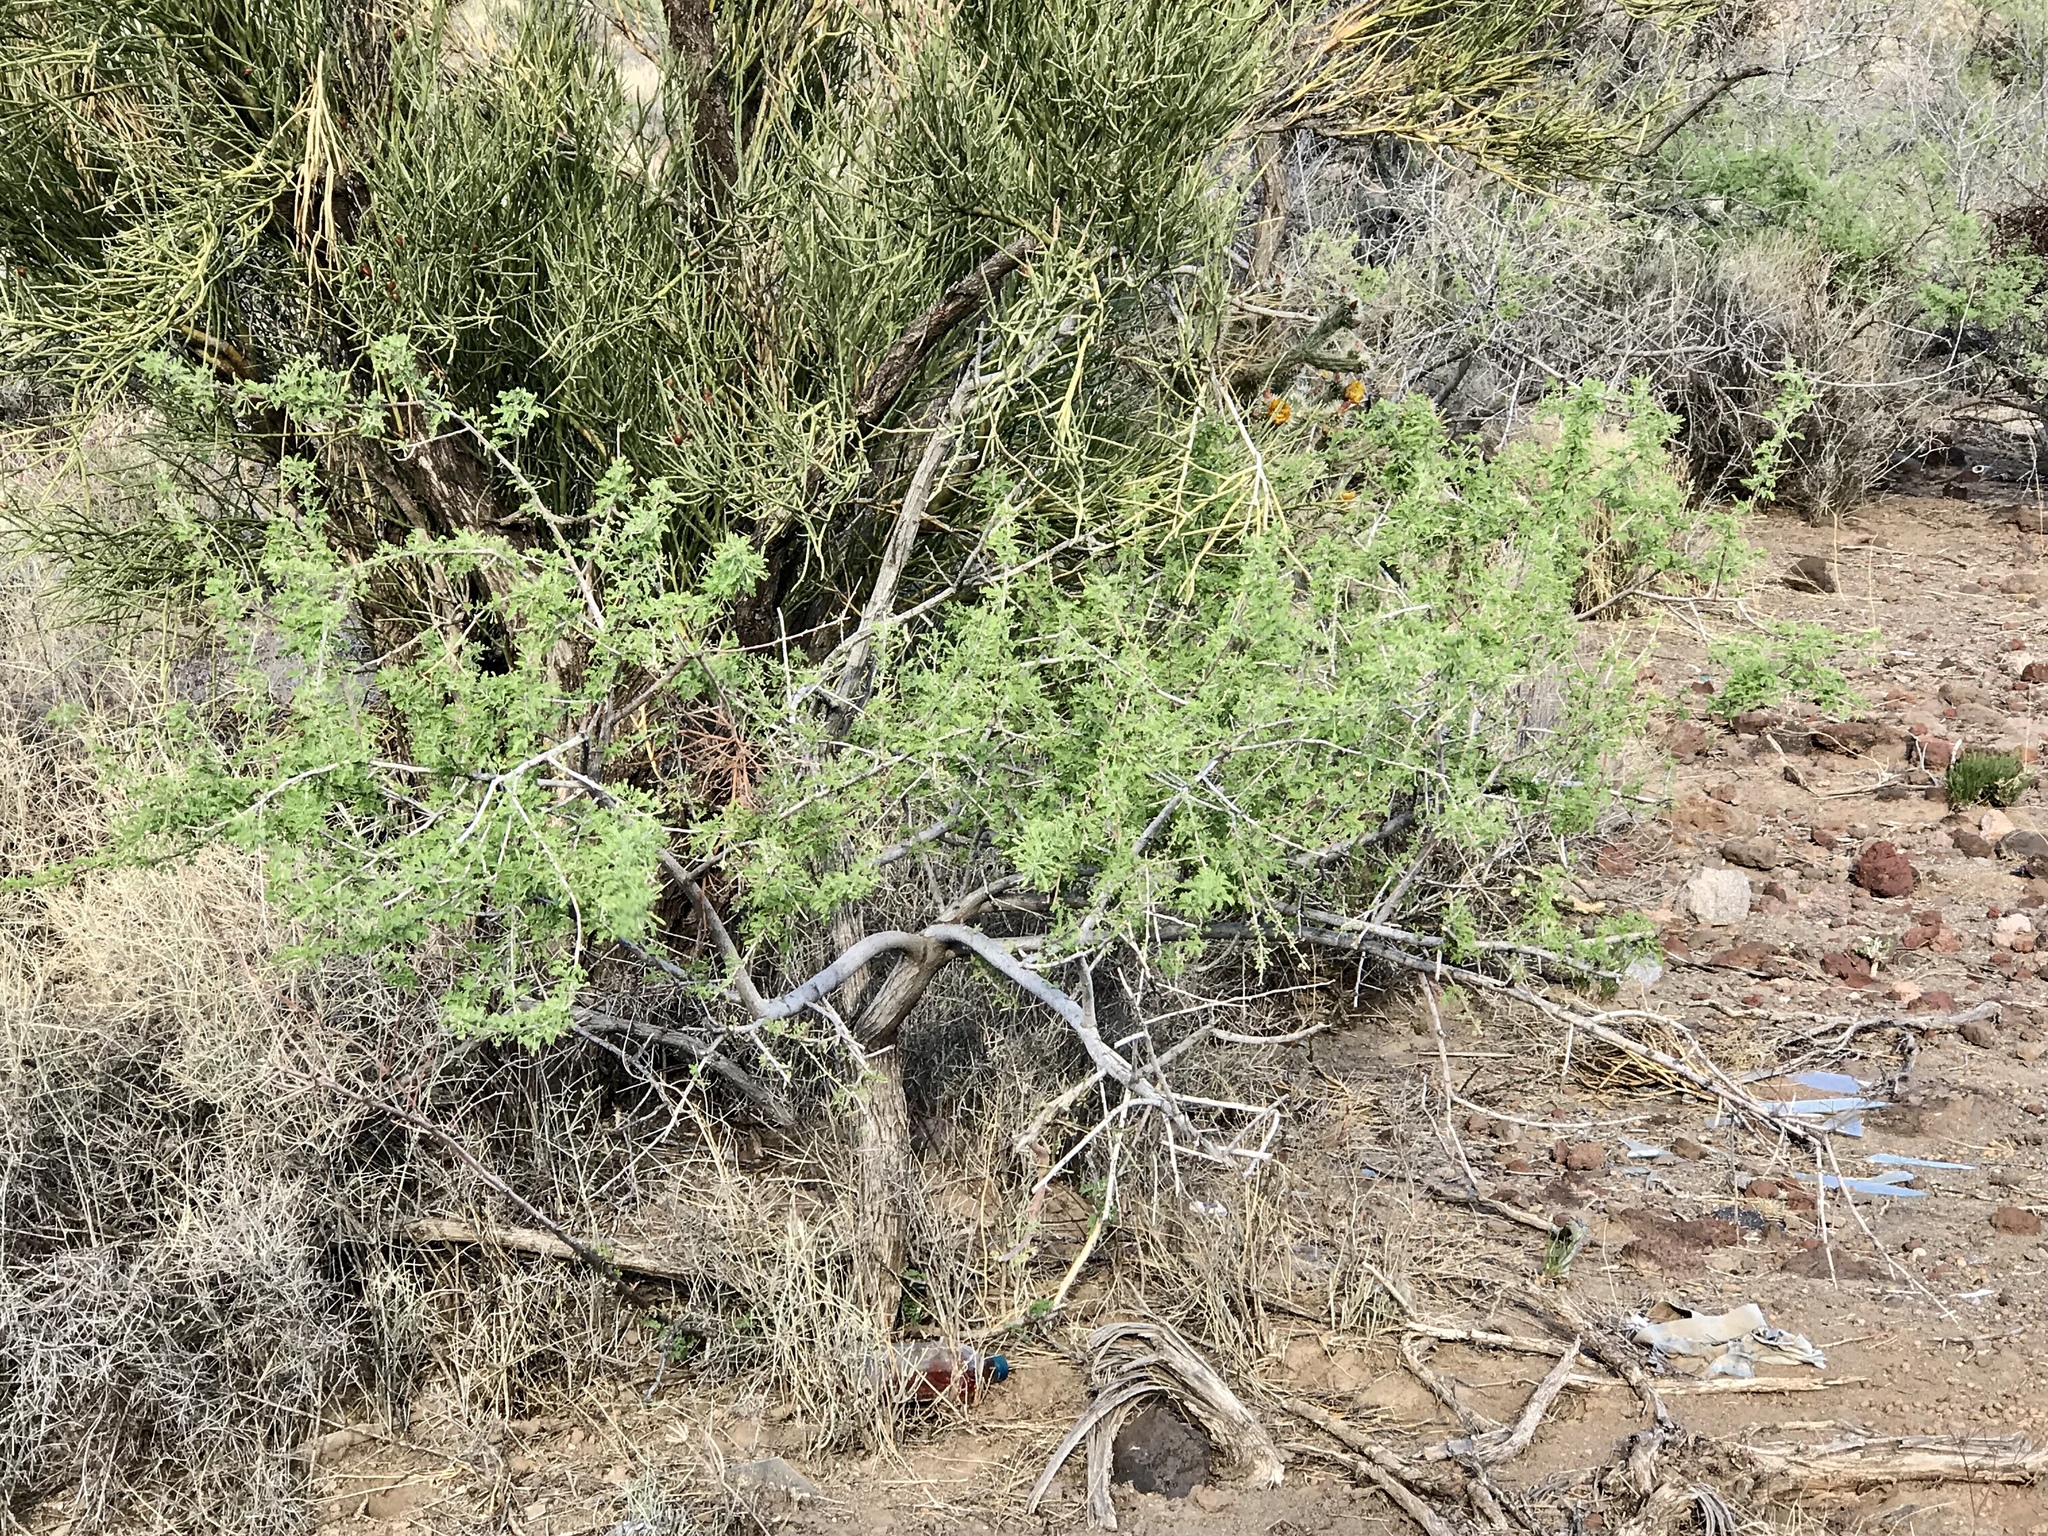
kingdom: Plantae
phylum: Tracheophyta
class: Magnoliopsida
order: Fabales
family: Fabaceae
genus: Senegalia
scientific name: Senegalia greggii
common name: Texas-mimosa
